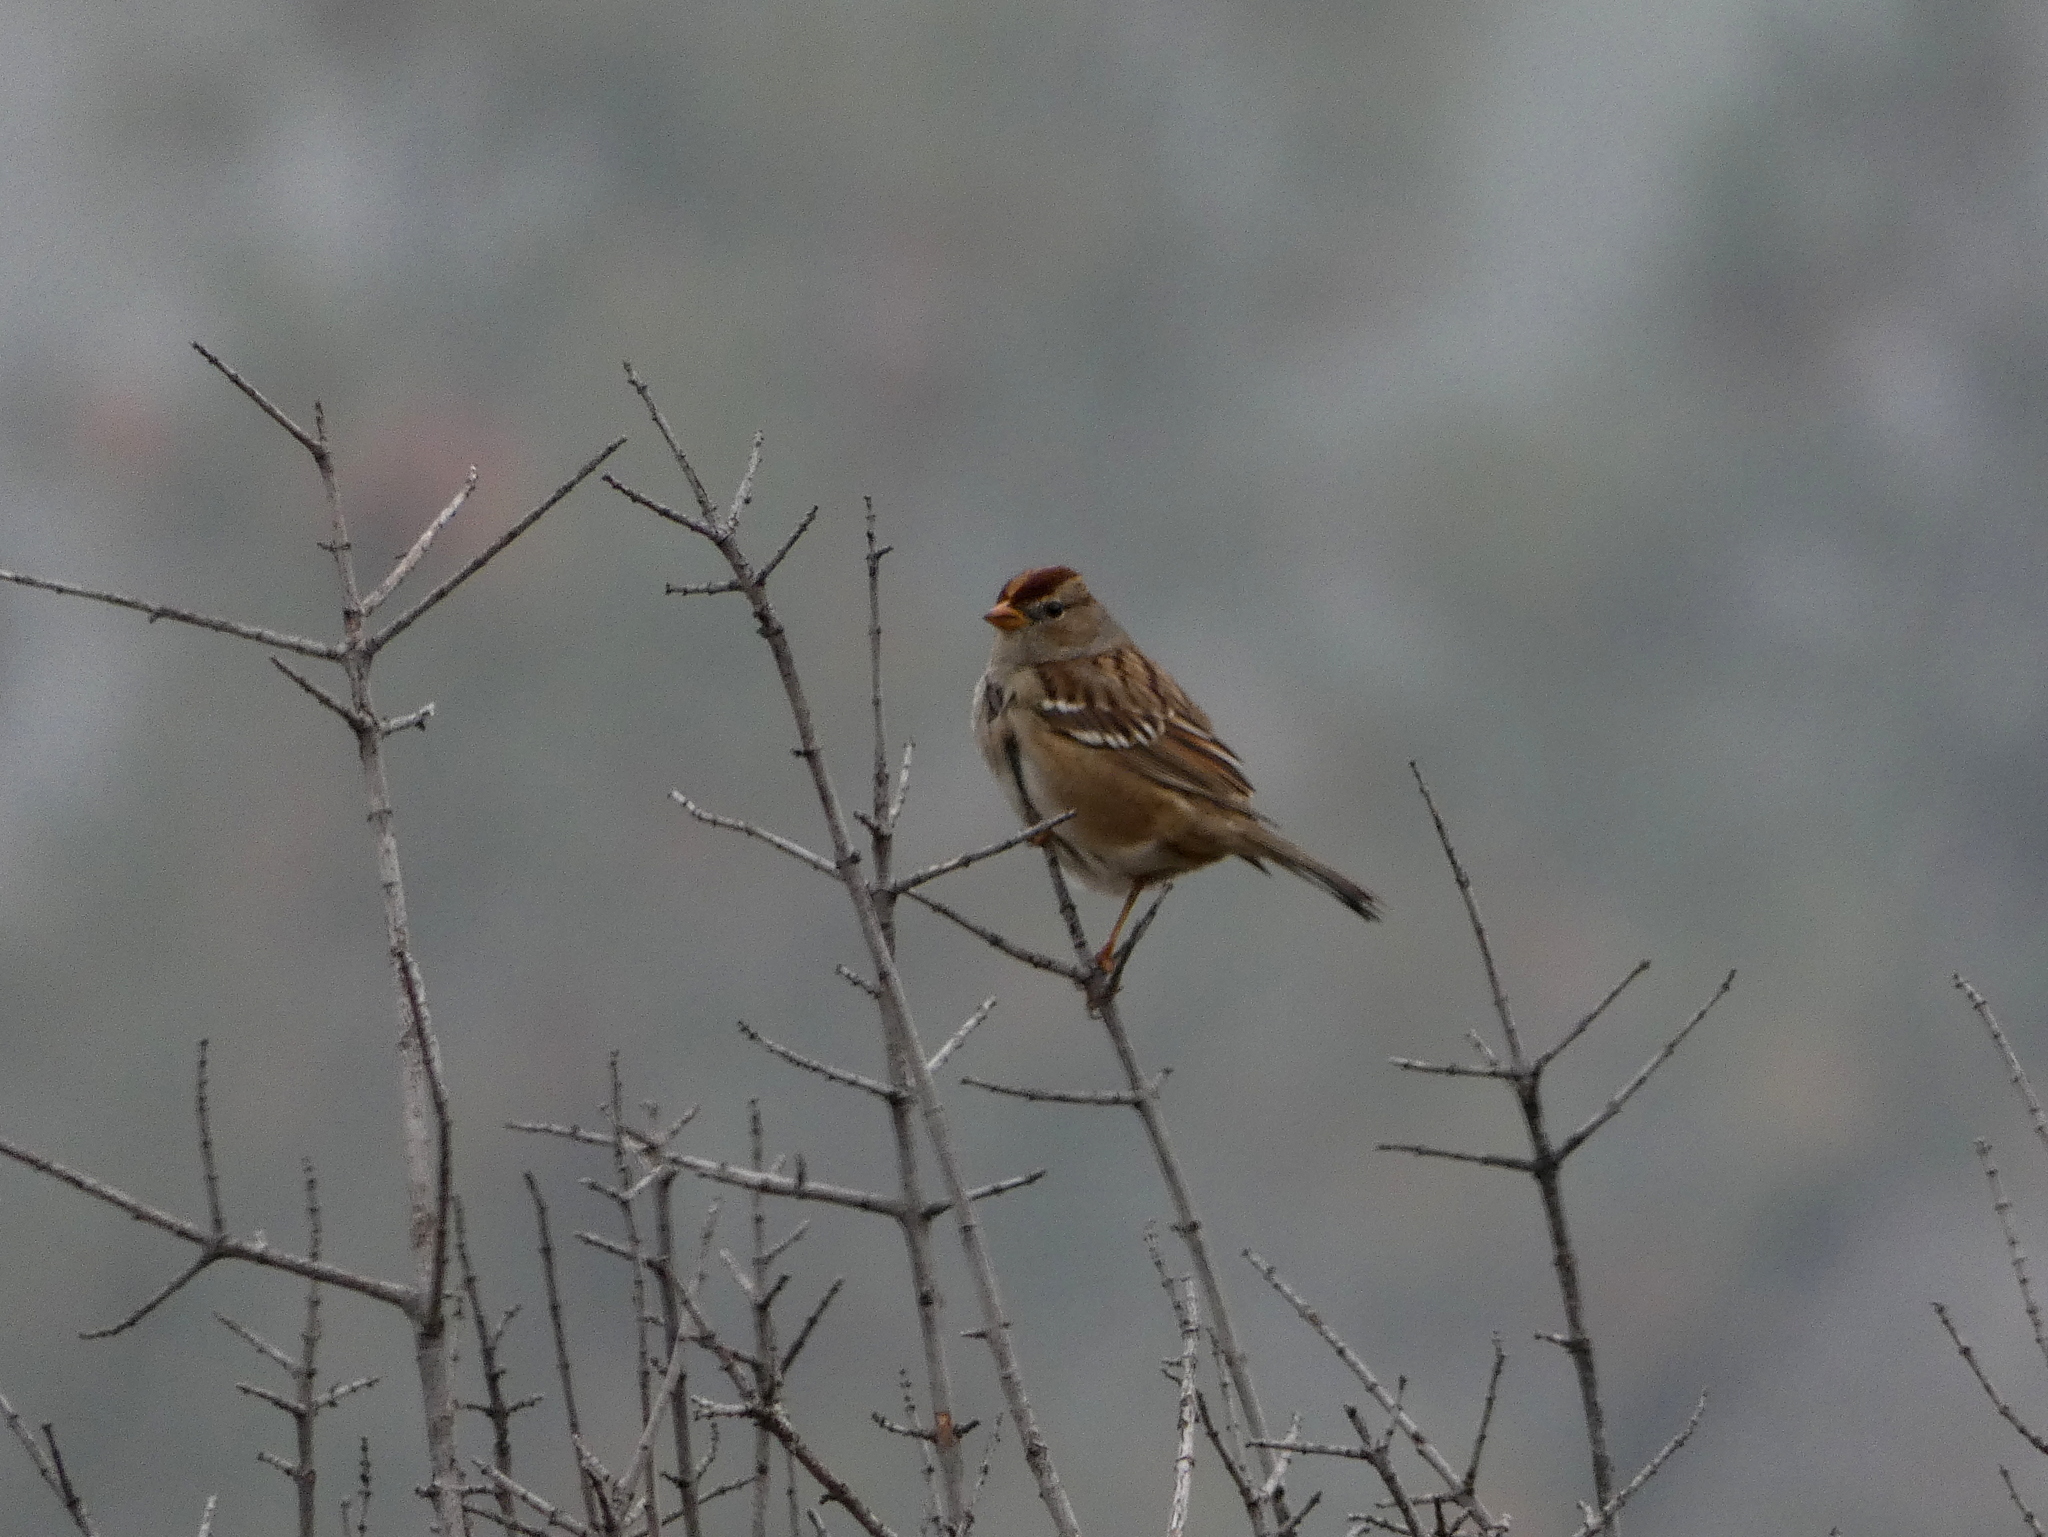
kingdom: Animalia
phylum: Chordata
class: Aves
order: Passeriformes
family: Passerellidae
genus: Zonotrichia
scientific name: Zonotrichia leucophrys
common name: White-crowned sparrow
